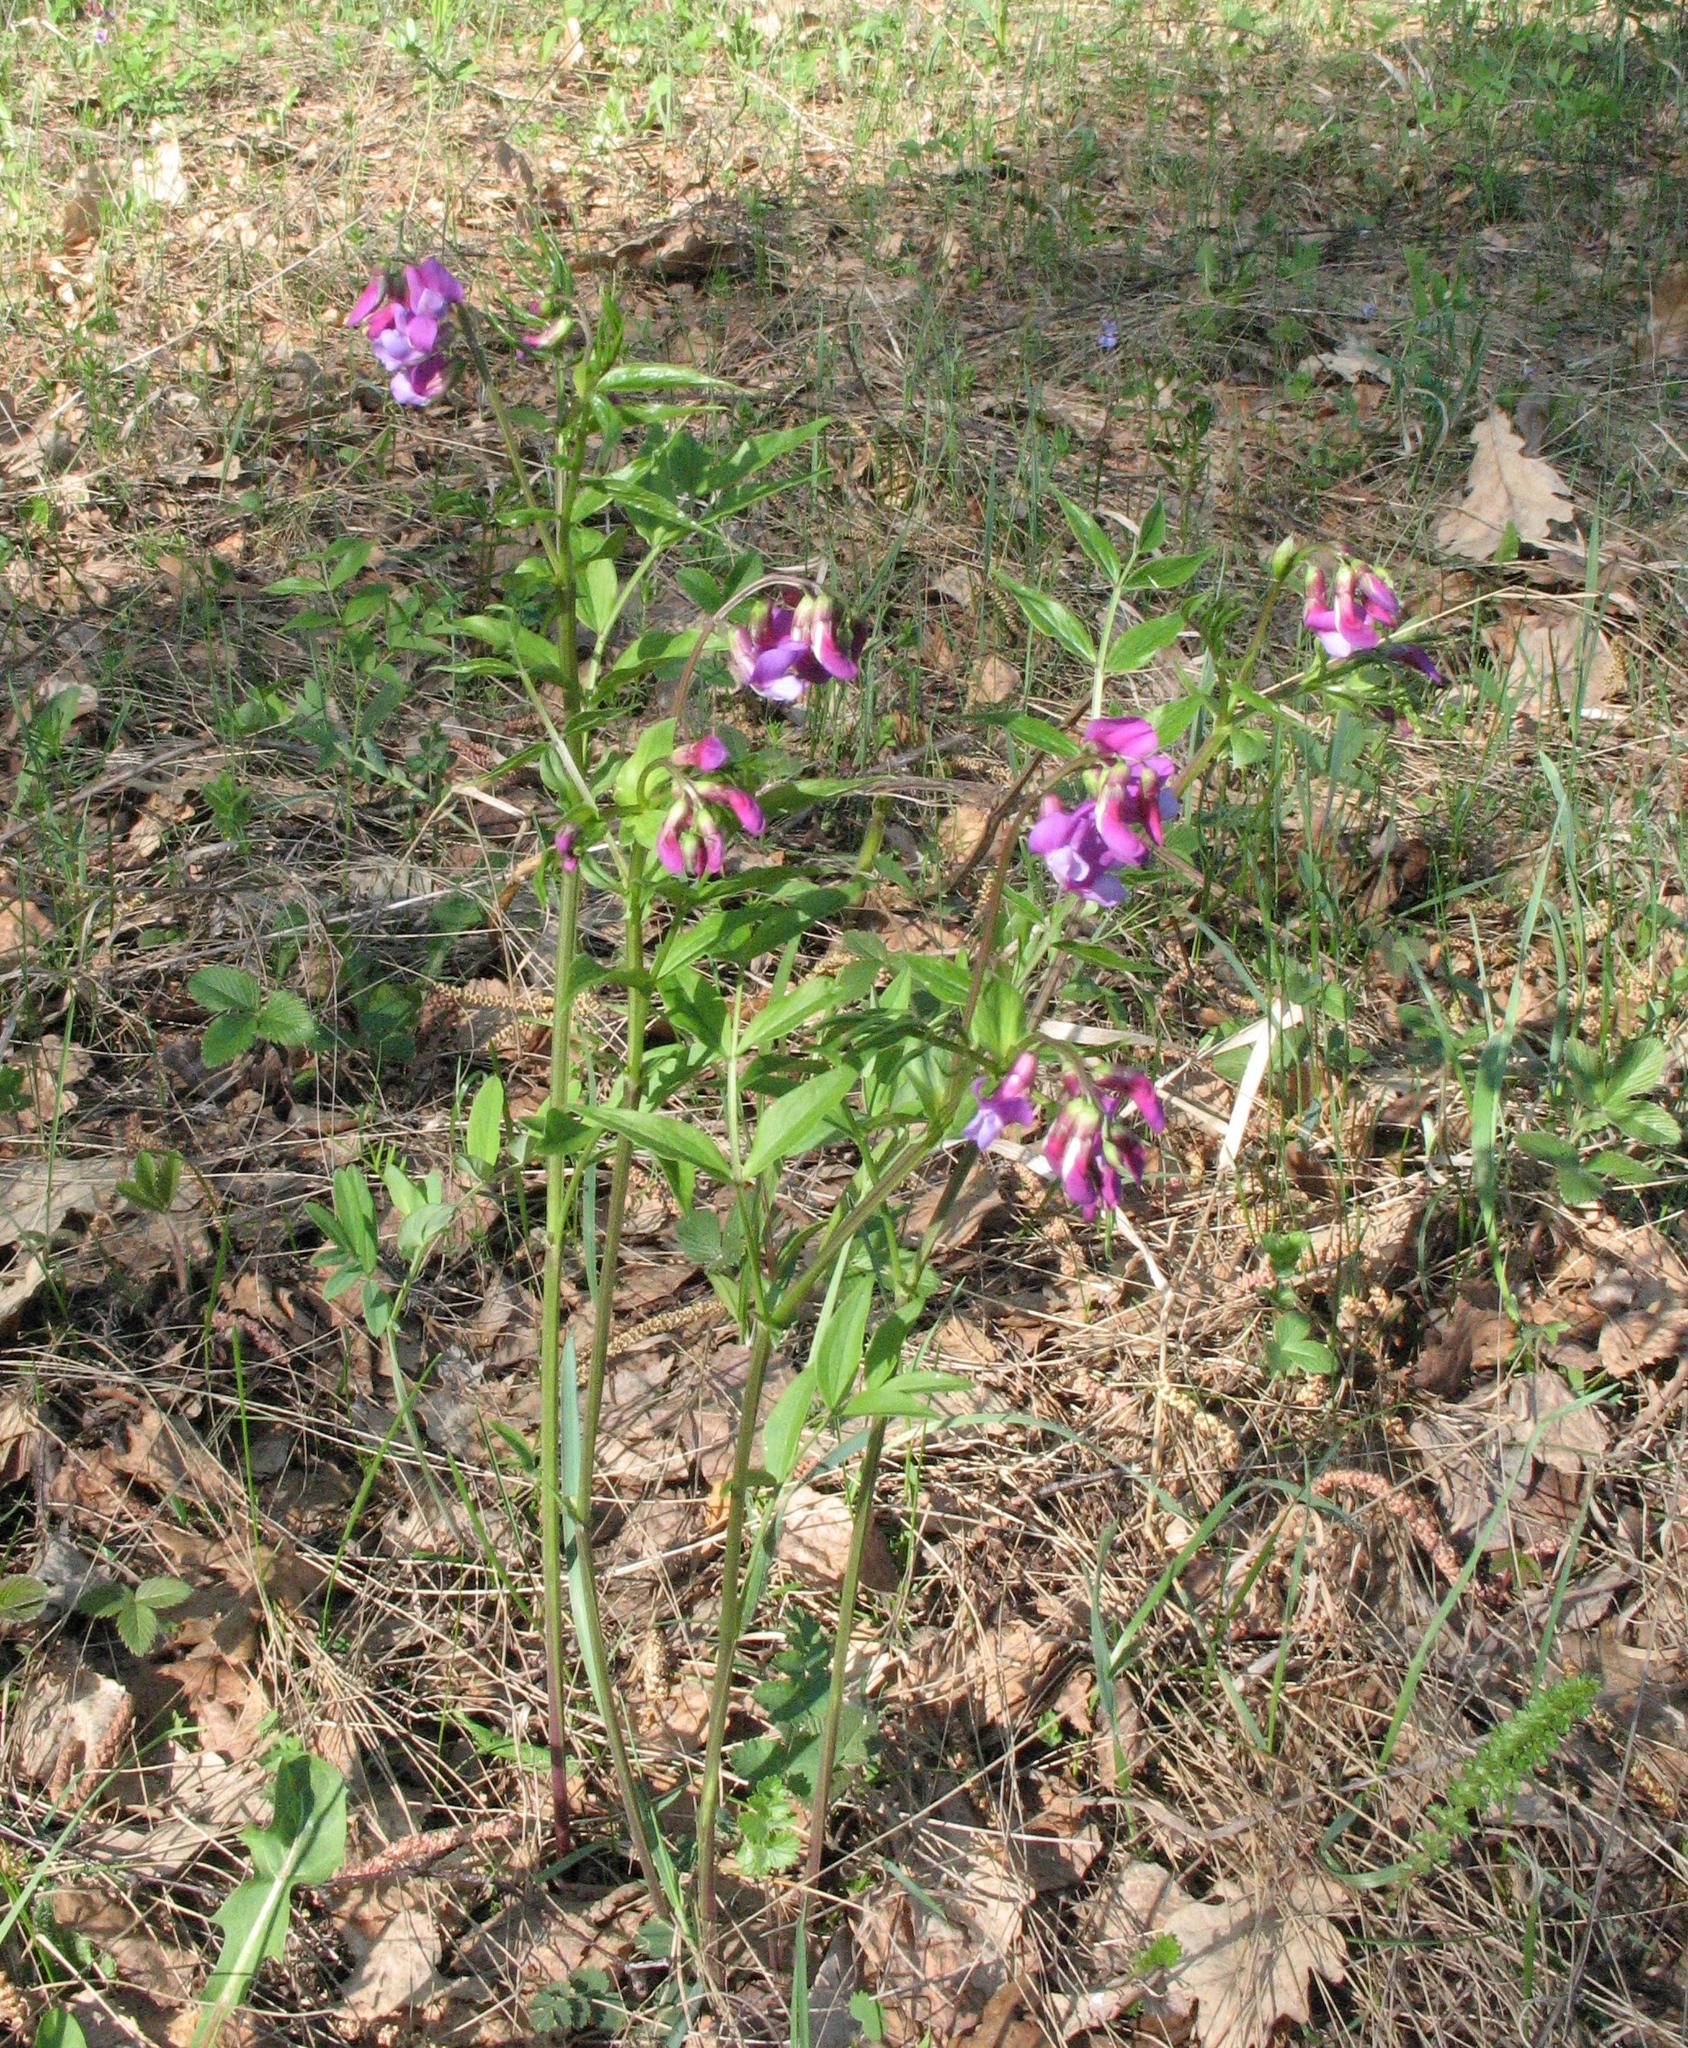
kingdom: Plantae
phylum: Tracheophyta
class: Magnoliopsida
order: Fabales
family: Fabaceae
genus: Lathyrus
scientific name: Lathyrus vernus
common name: Spring pea
